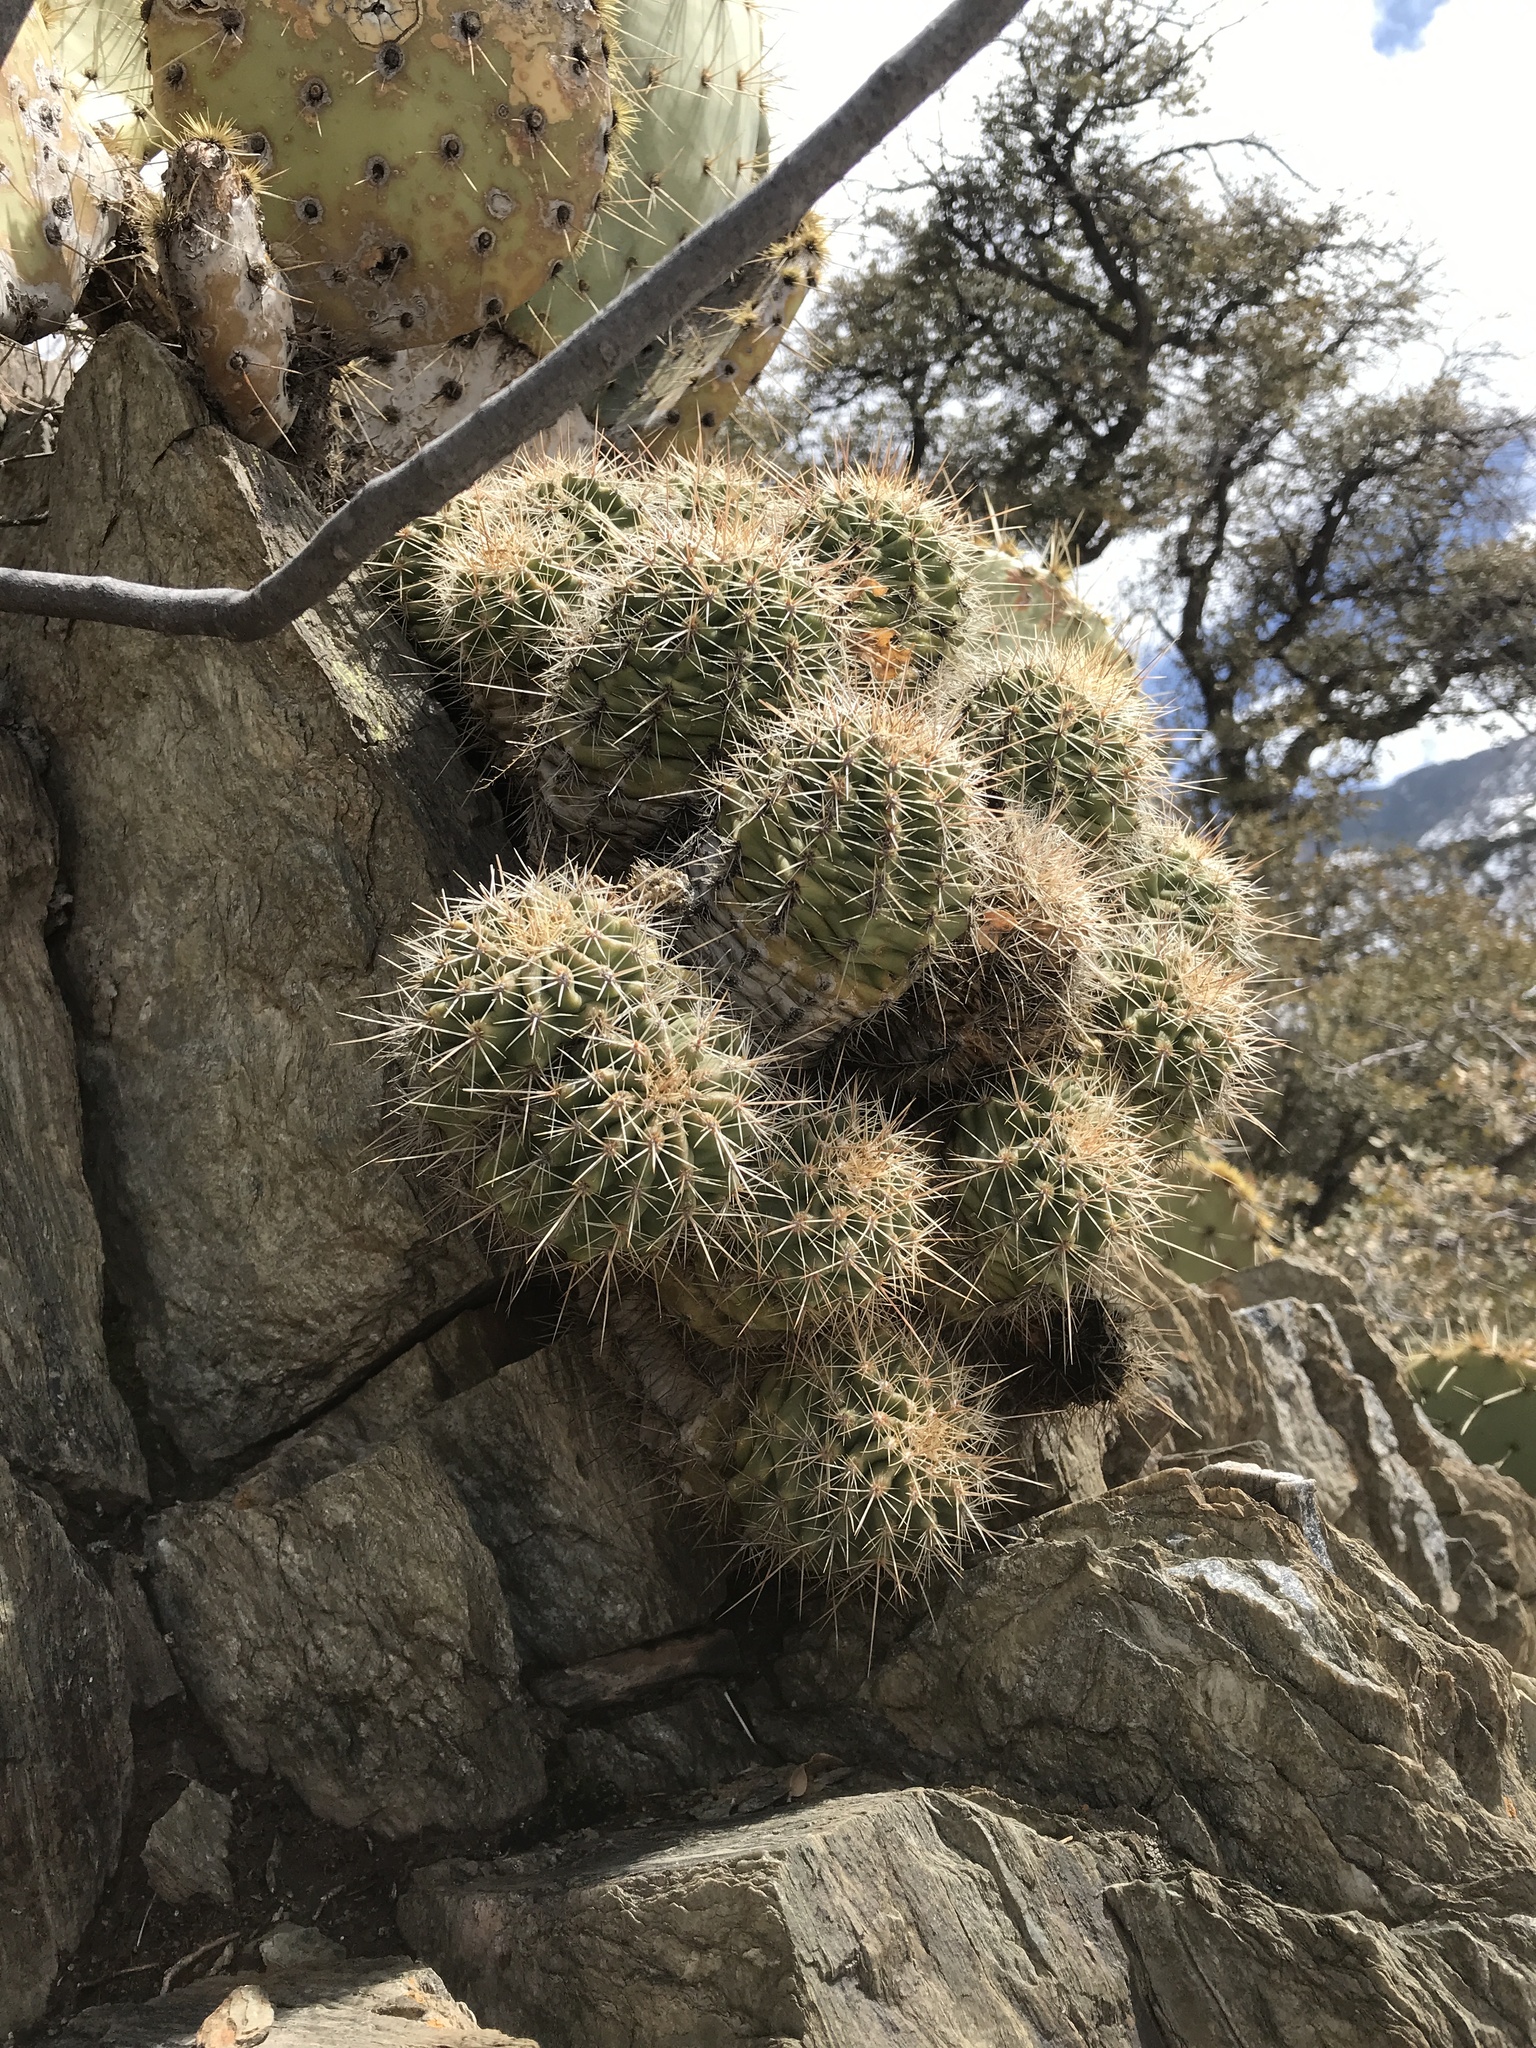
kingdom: Plantae
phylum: Tracheophyta
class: Magnoliopsida
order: Caryophyllales
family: Cactaceae
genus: Echinocereus
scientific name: Echinocereus coccineus
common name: Scarlet hedgehog cactus
